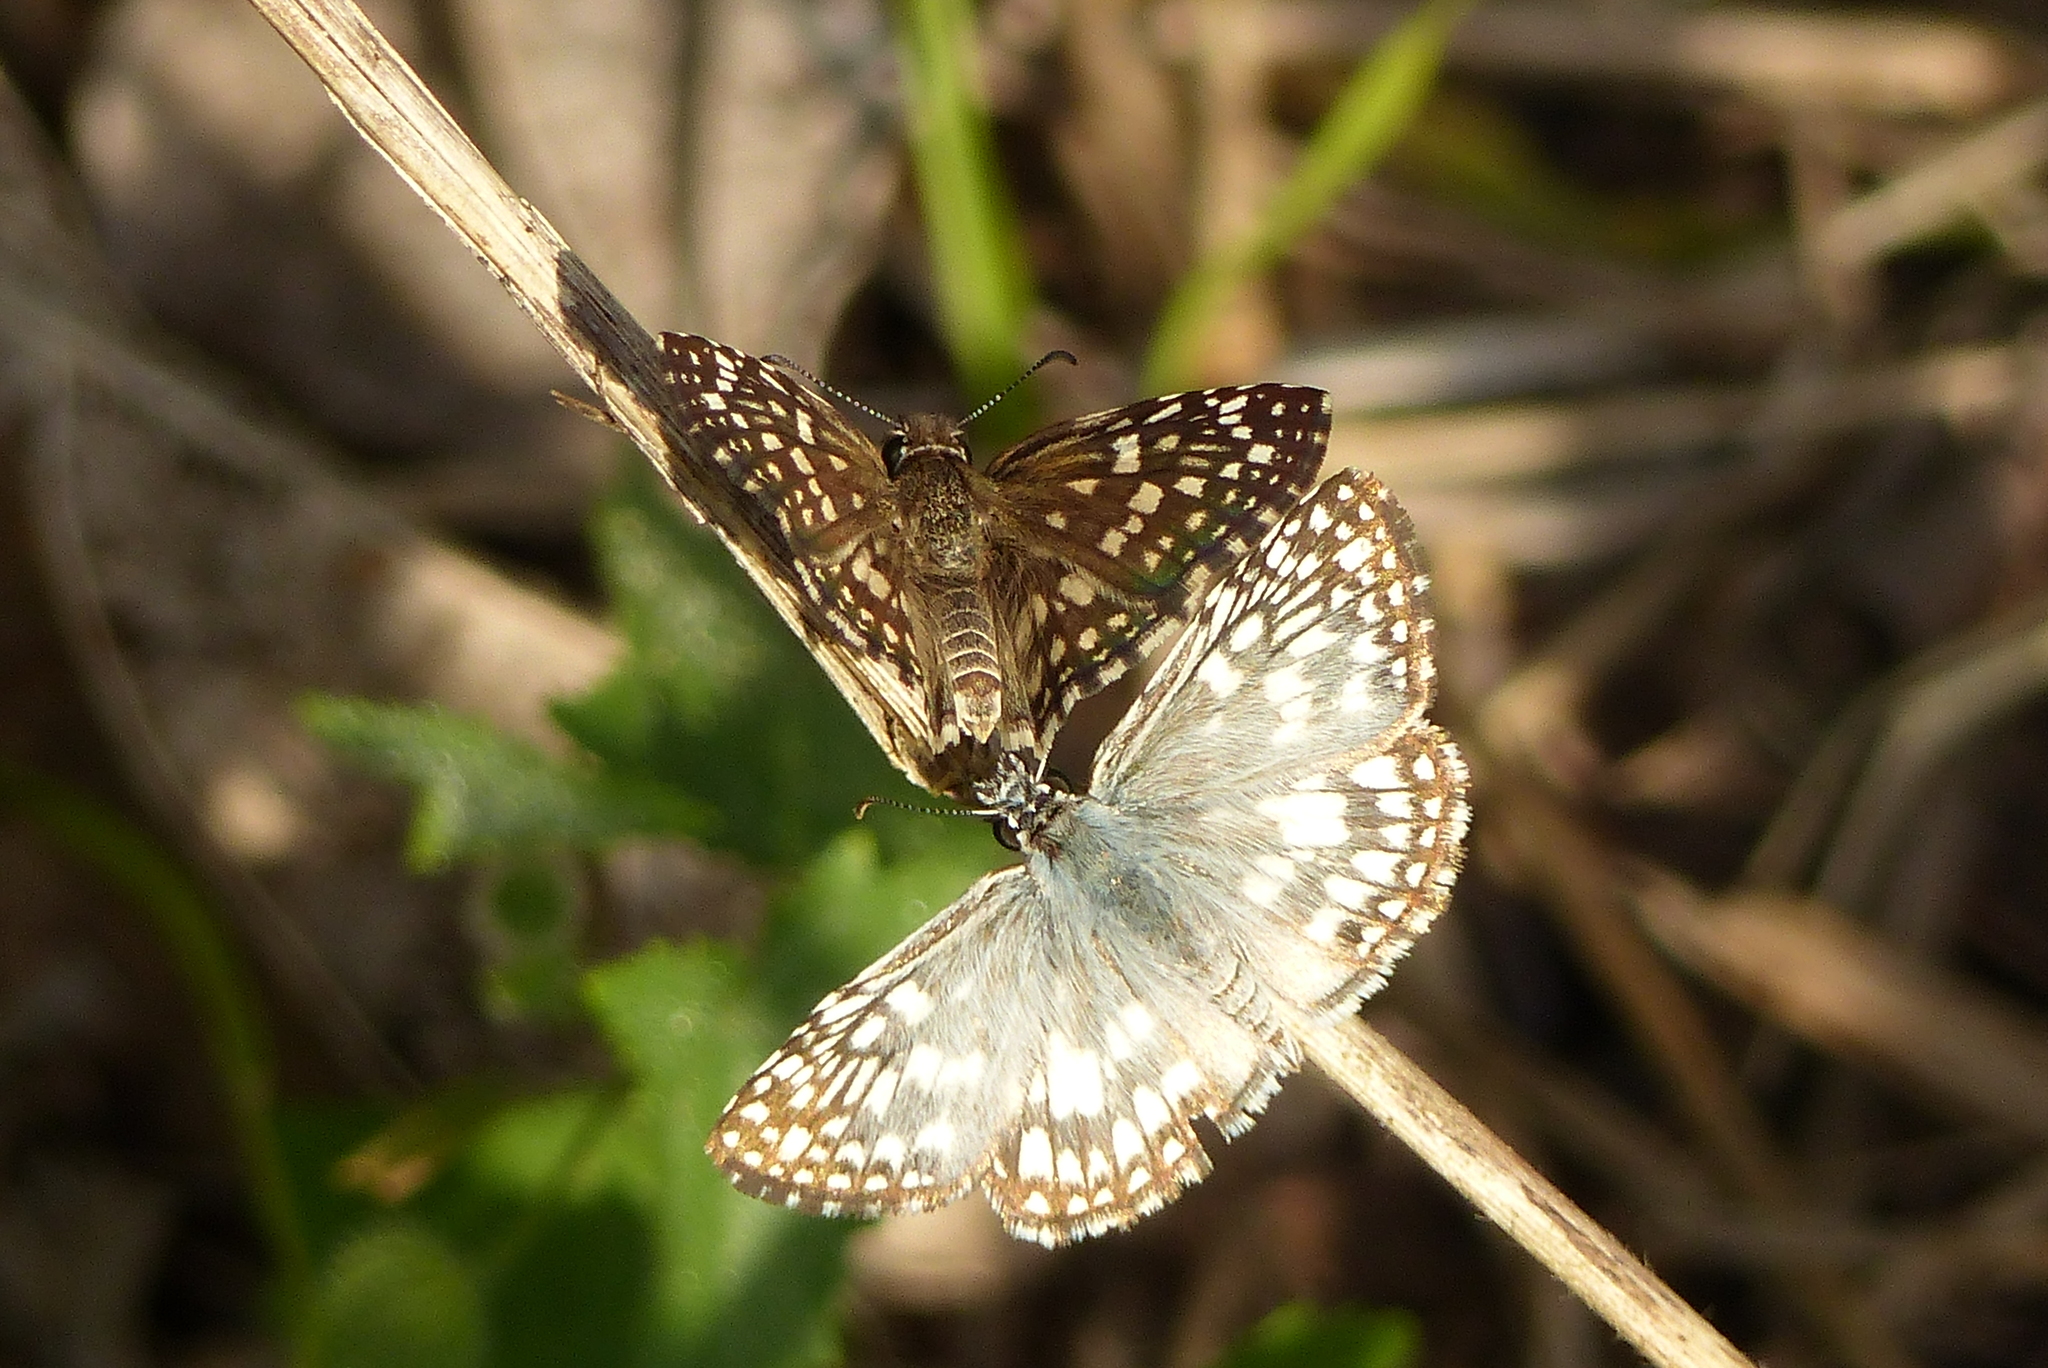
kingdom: Animalia
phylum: Arthropoda
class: Insecta
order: Lepidoptera
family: Hesperiidae
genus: Pyrgus
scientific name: Pyrgus oileus
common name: Tropical checkered-skipper
